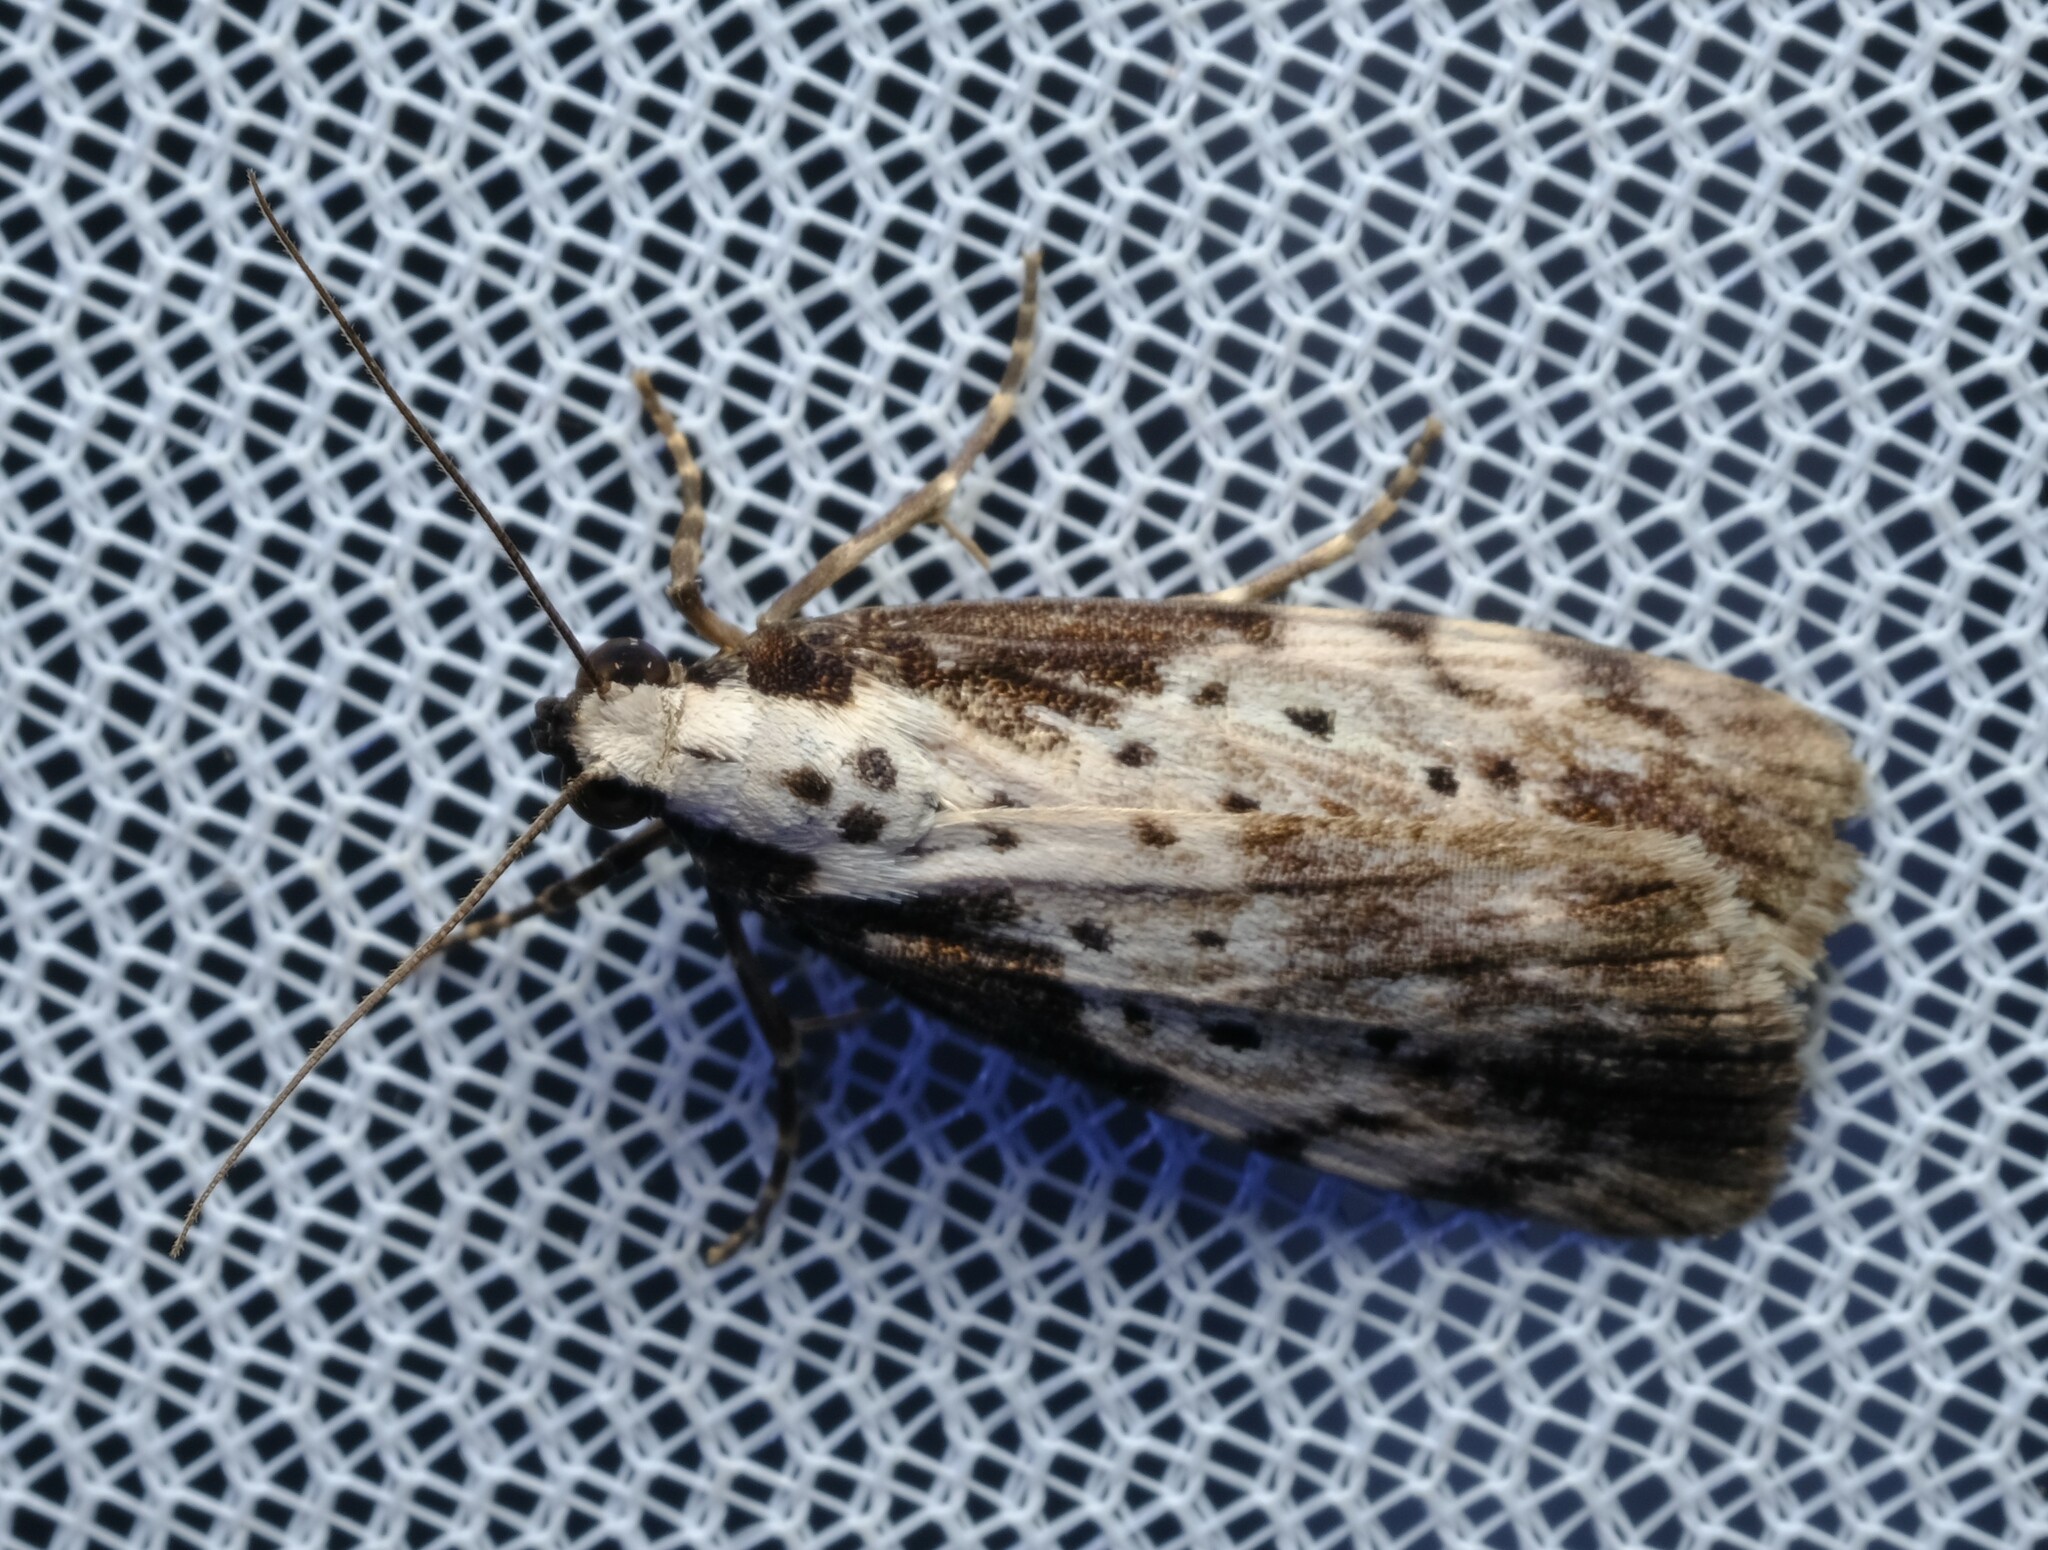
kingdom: Animalia
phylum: Arthropoda
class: Insecta
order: Lepidoptera
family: Erebidae
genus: Digama
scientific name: Digama Sommeria marmorea
